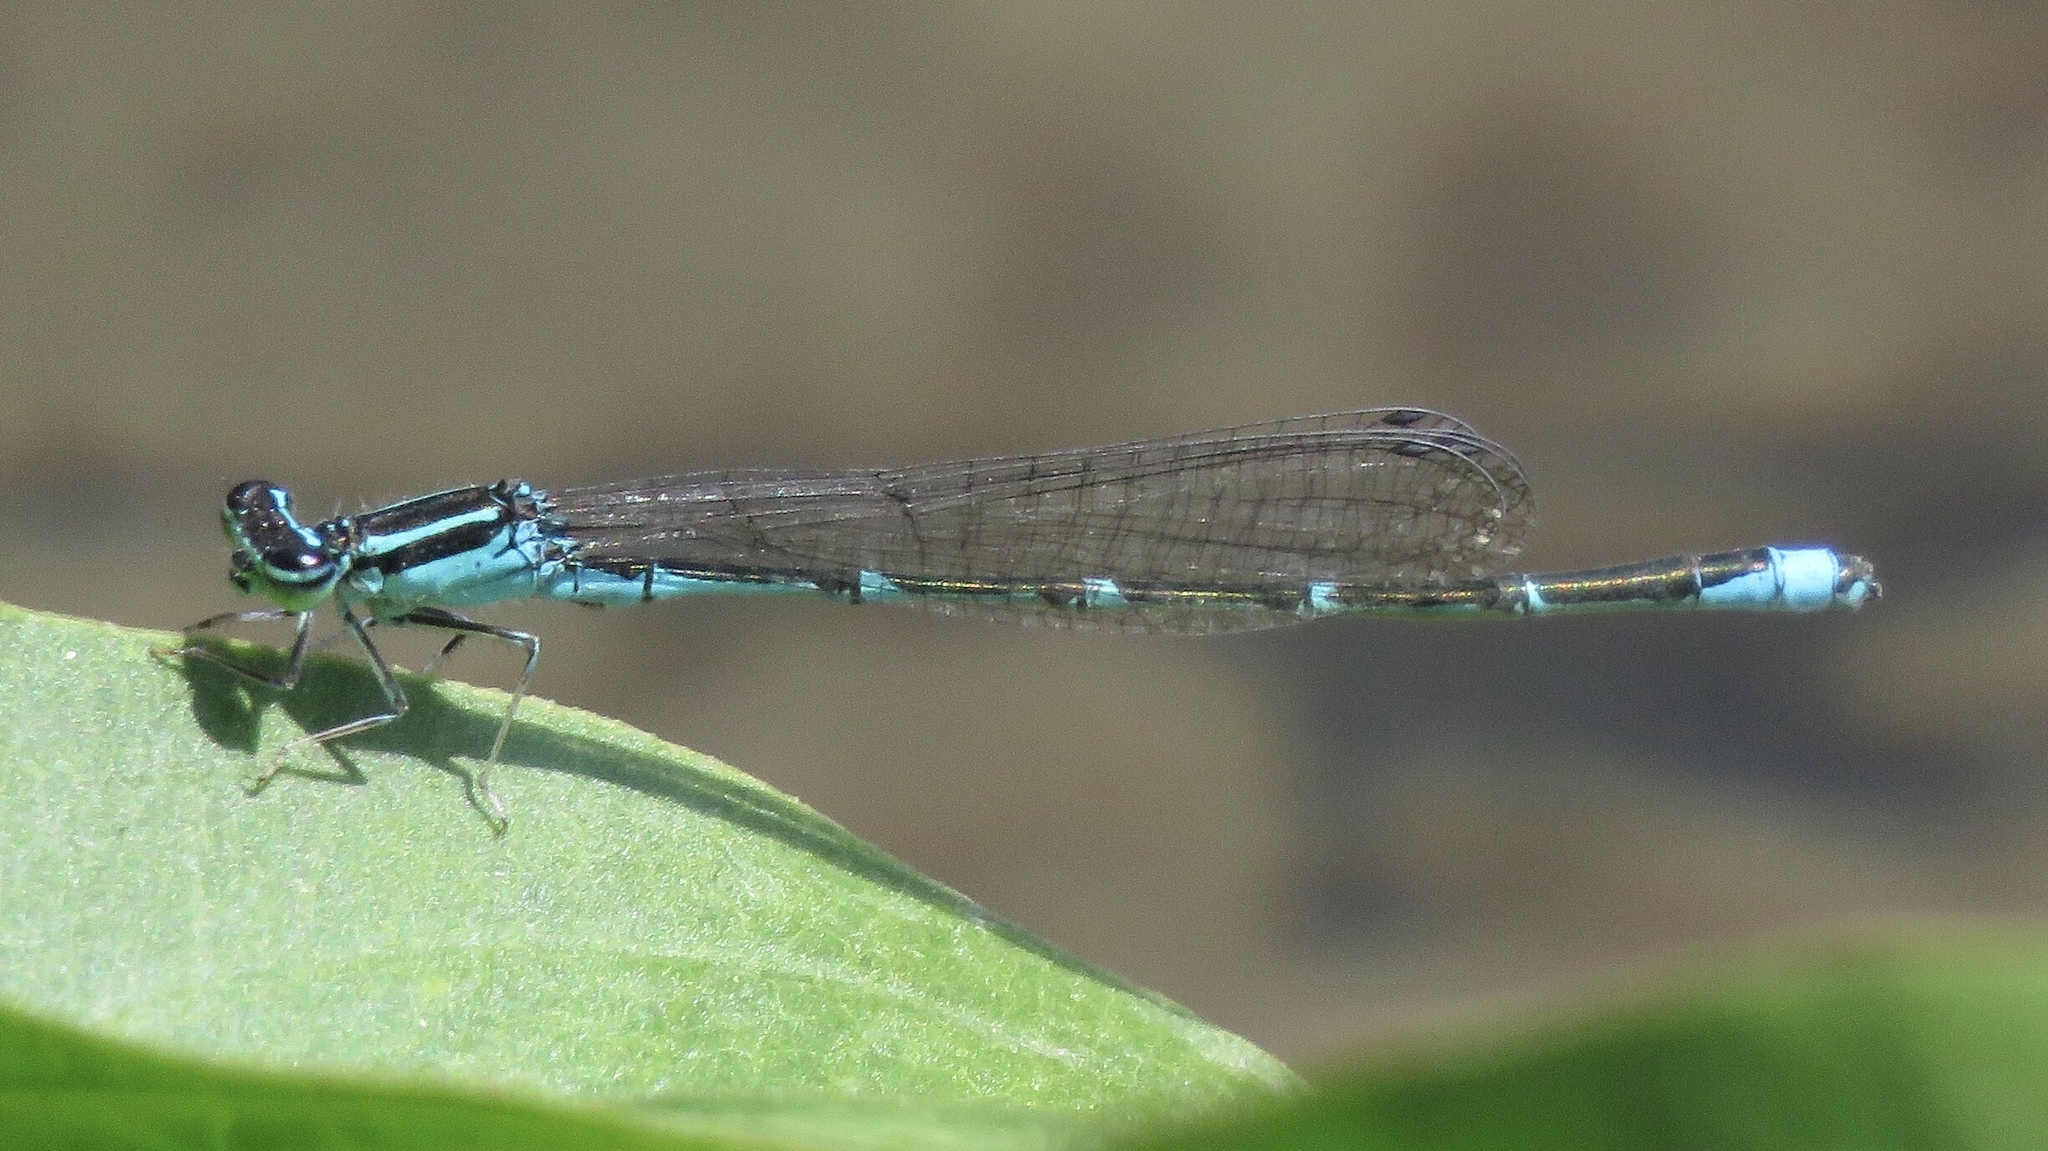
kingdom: Animalia
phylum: Arthropoda
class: Insecta
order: Odonata
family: Coenagrionidae
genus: Enallagma
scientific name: Enallagma exsulans
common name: Stream bluet
